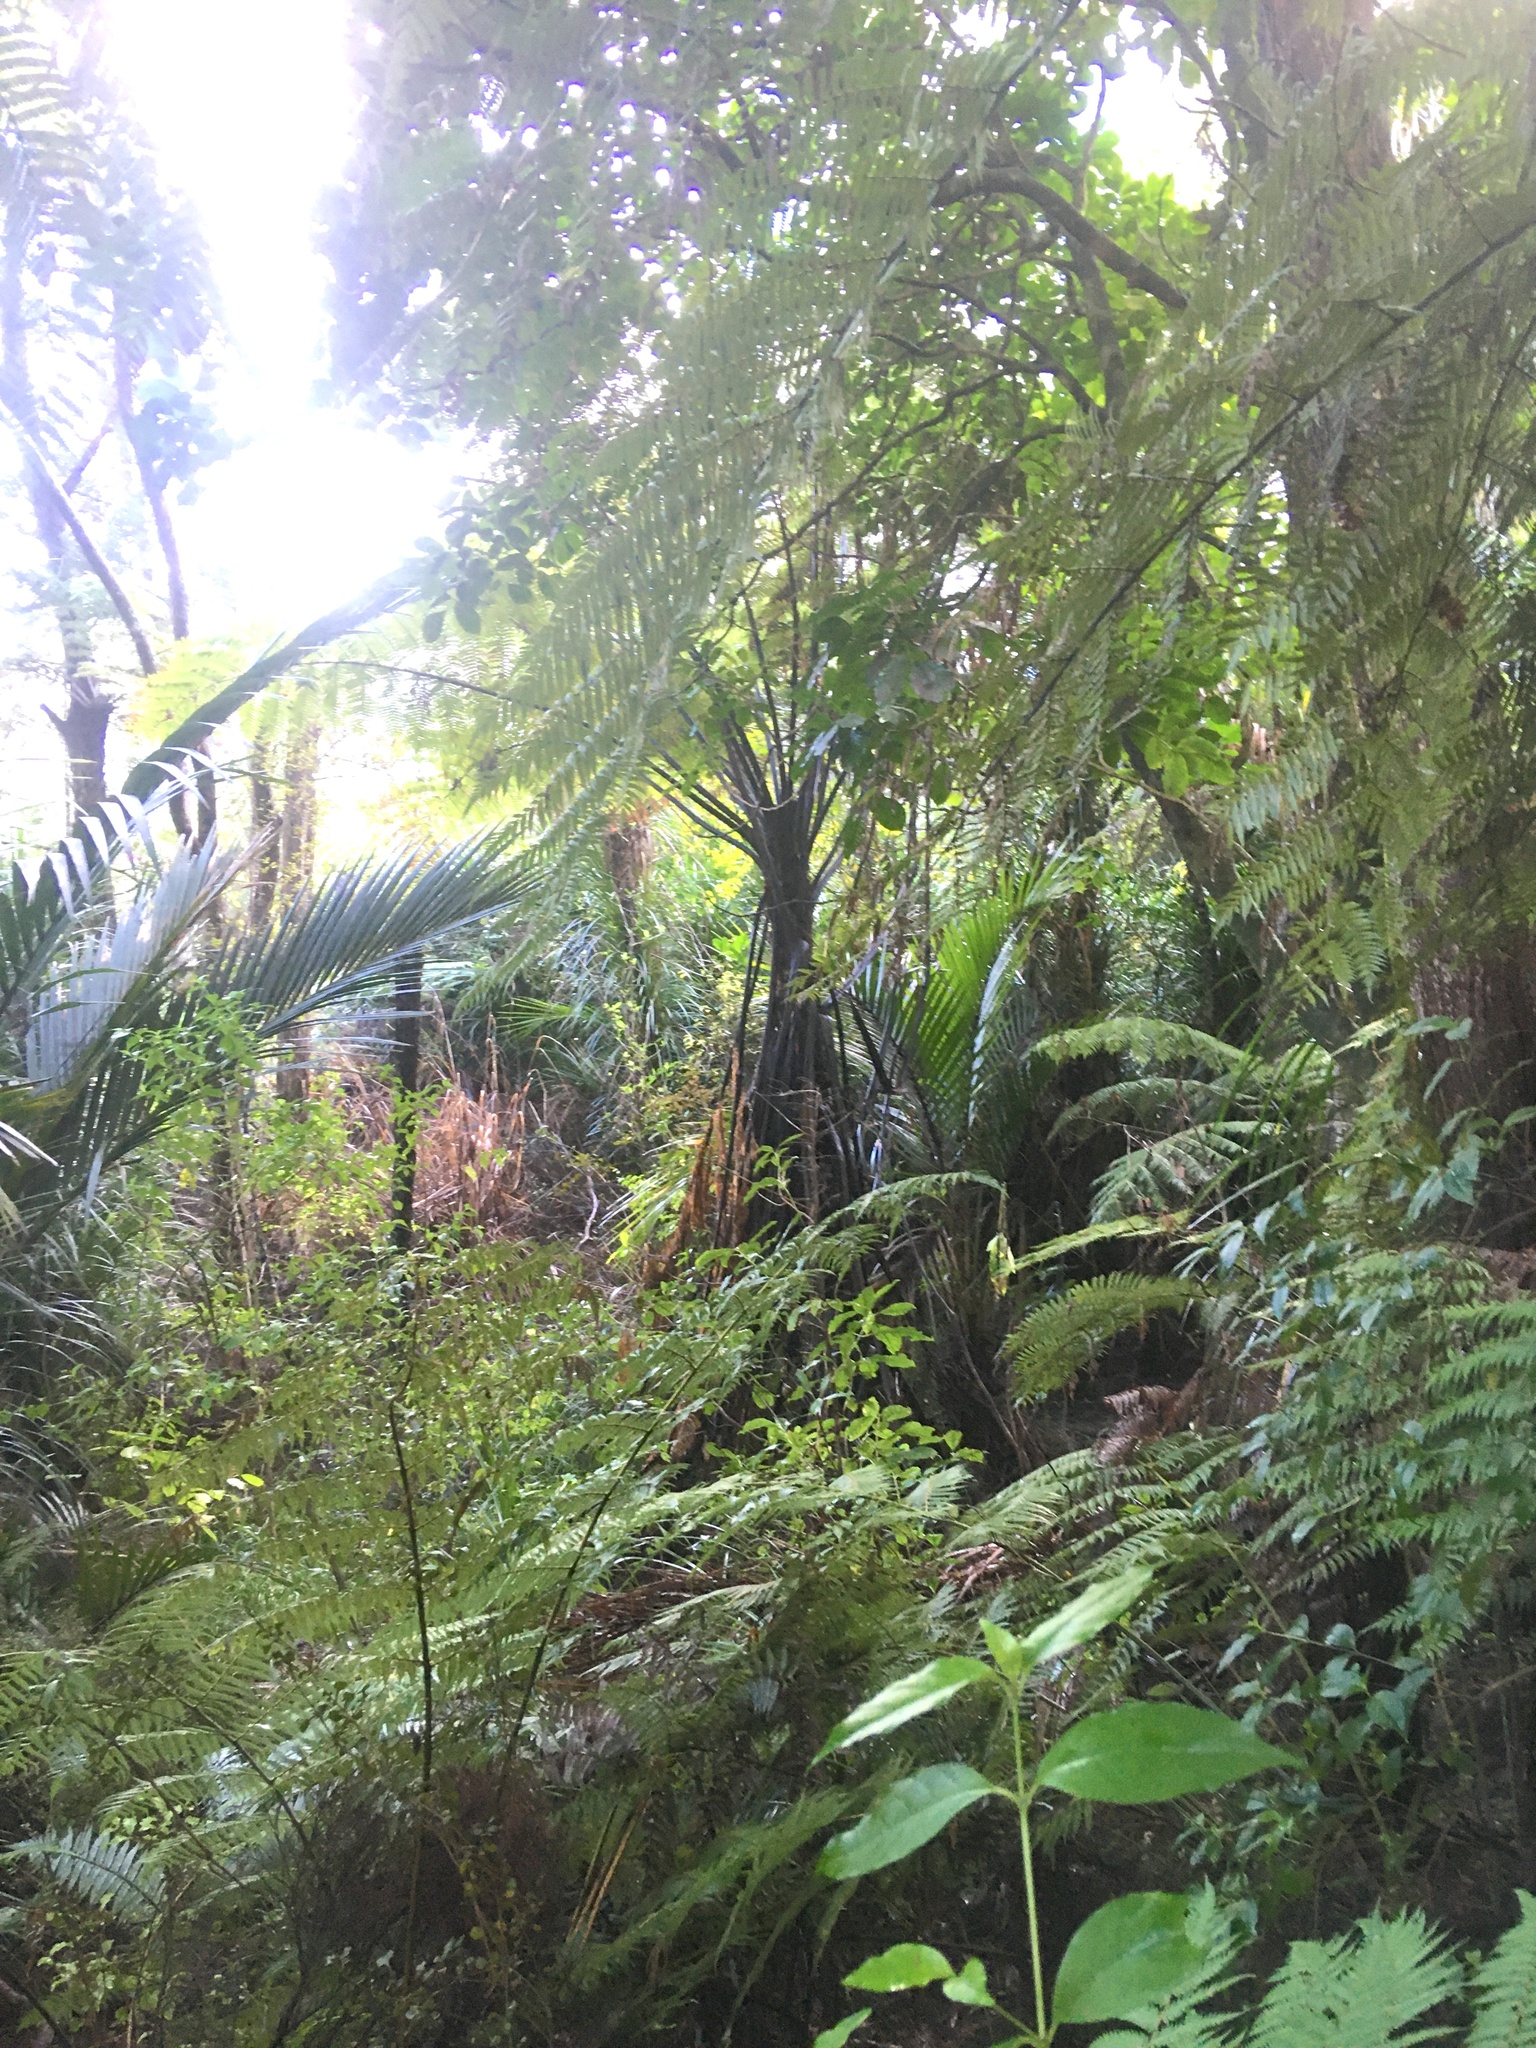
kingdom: Plantae
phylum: Tracheophyta
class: Polypodiopsida
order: Cyatheales
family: Cyatheaceae
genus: Sphaeropteris
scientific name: Sphaeropteris medullaris
